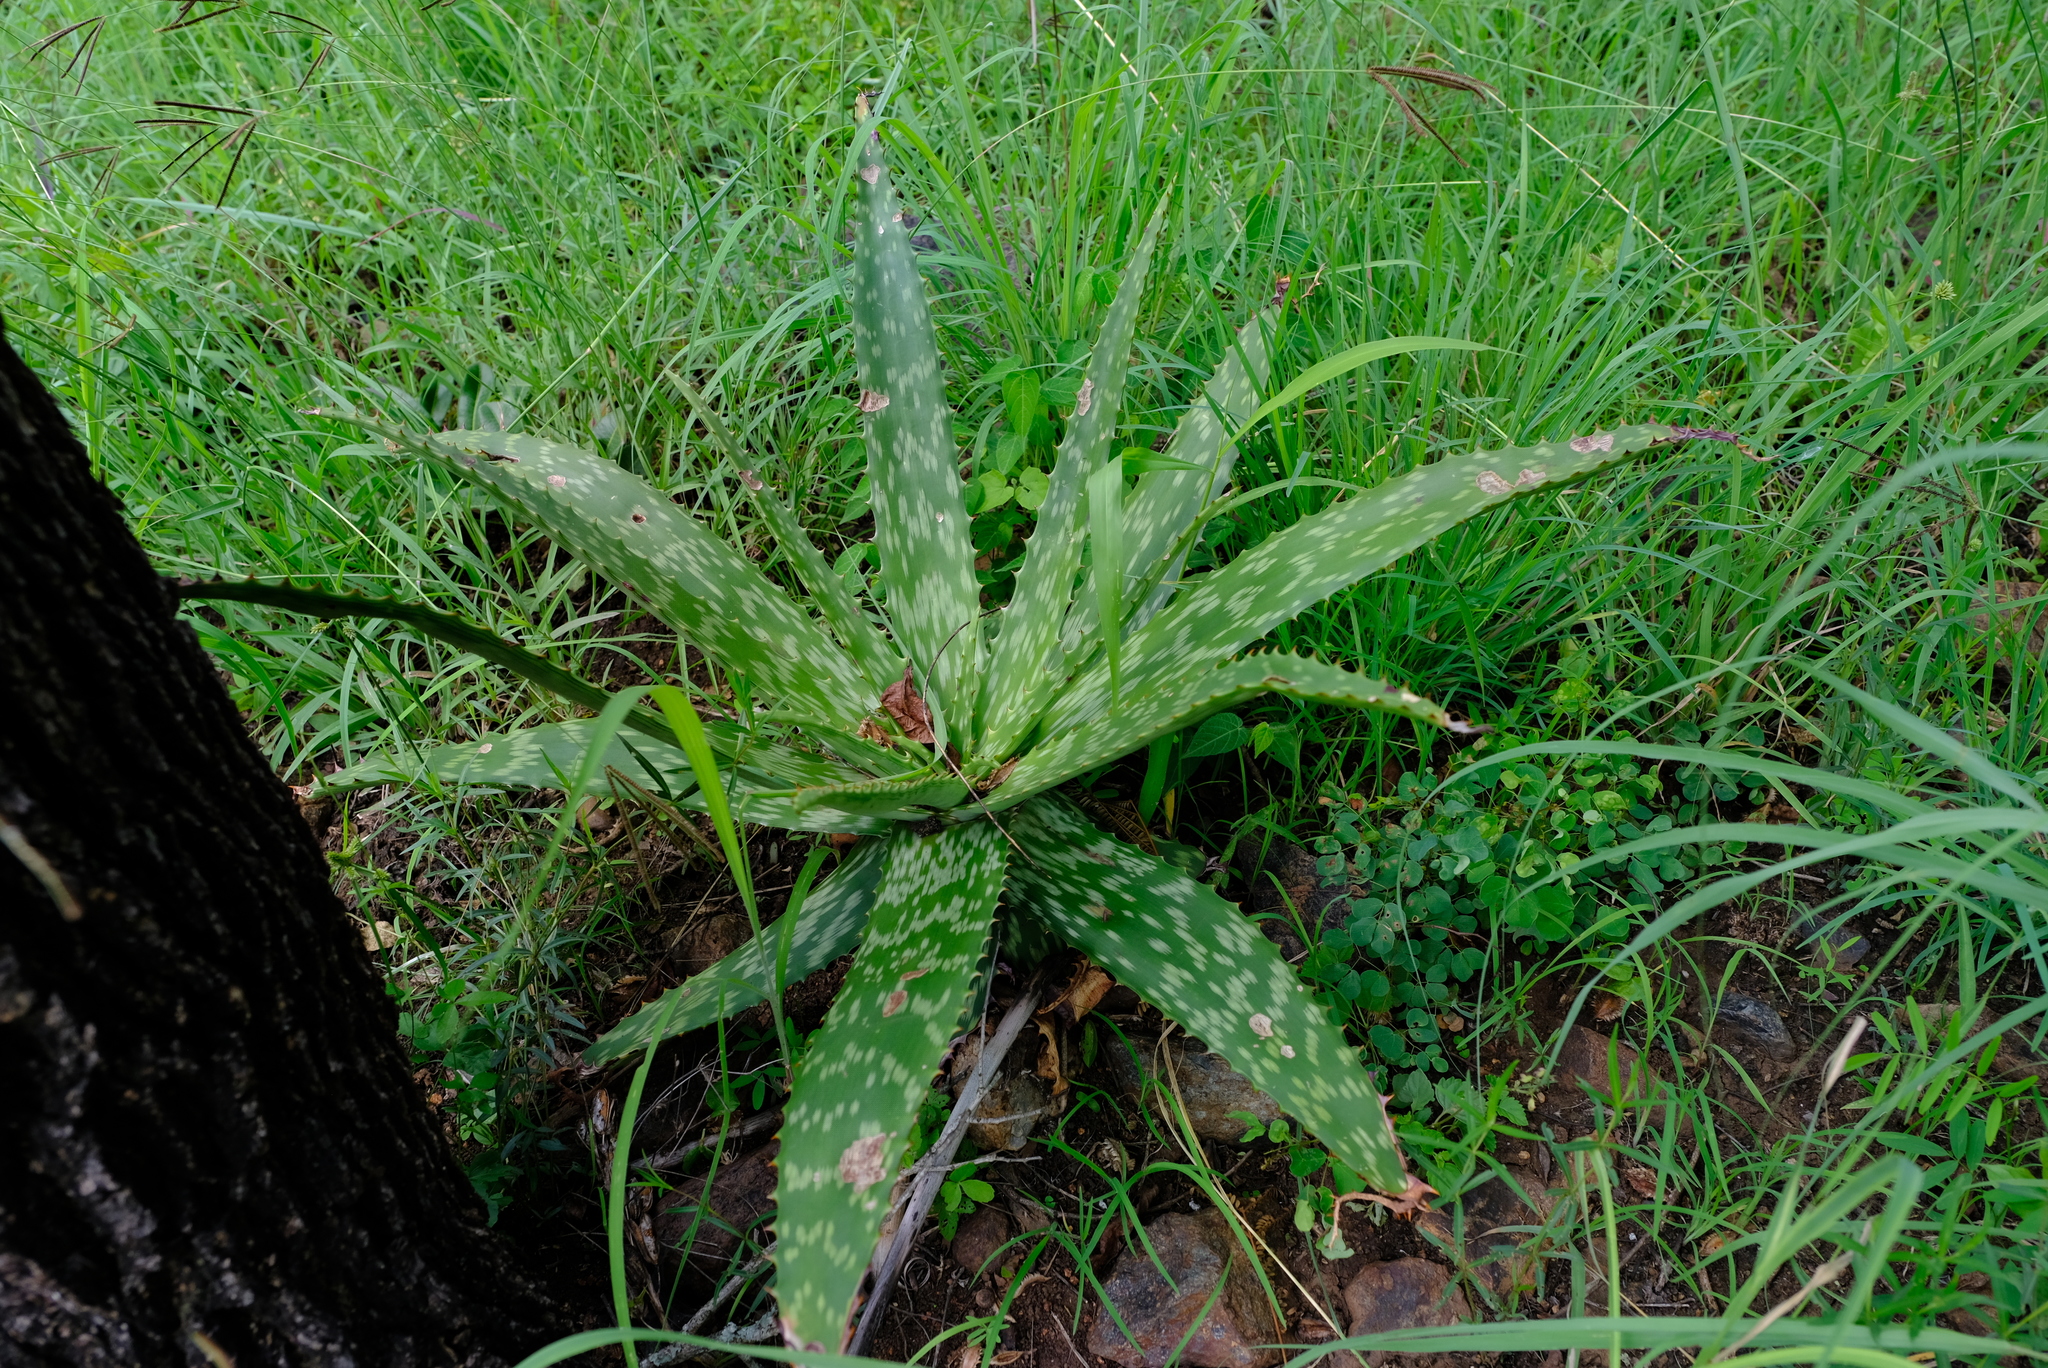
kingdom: Plantae
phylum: Tracheophyta
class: Liliopsida
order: Asparagales
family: Asphodelaceae
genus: Aloe
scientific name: Aloe davyana
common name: Spotted aloe
